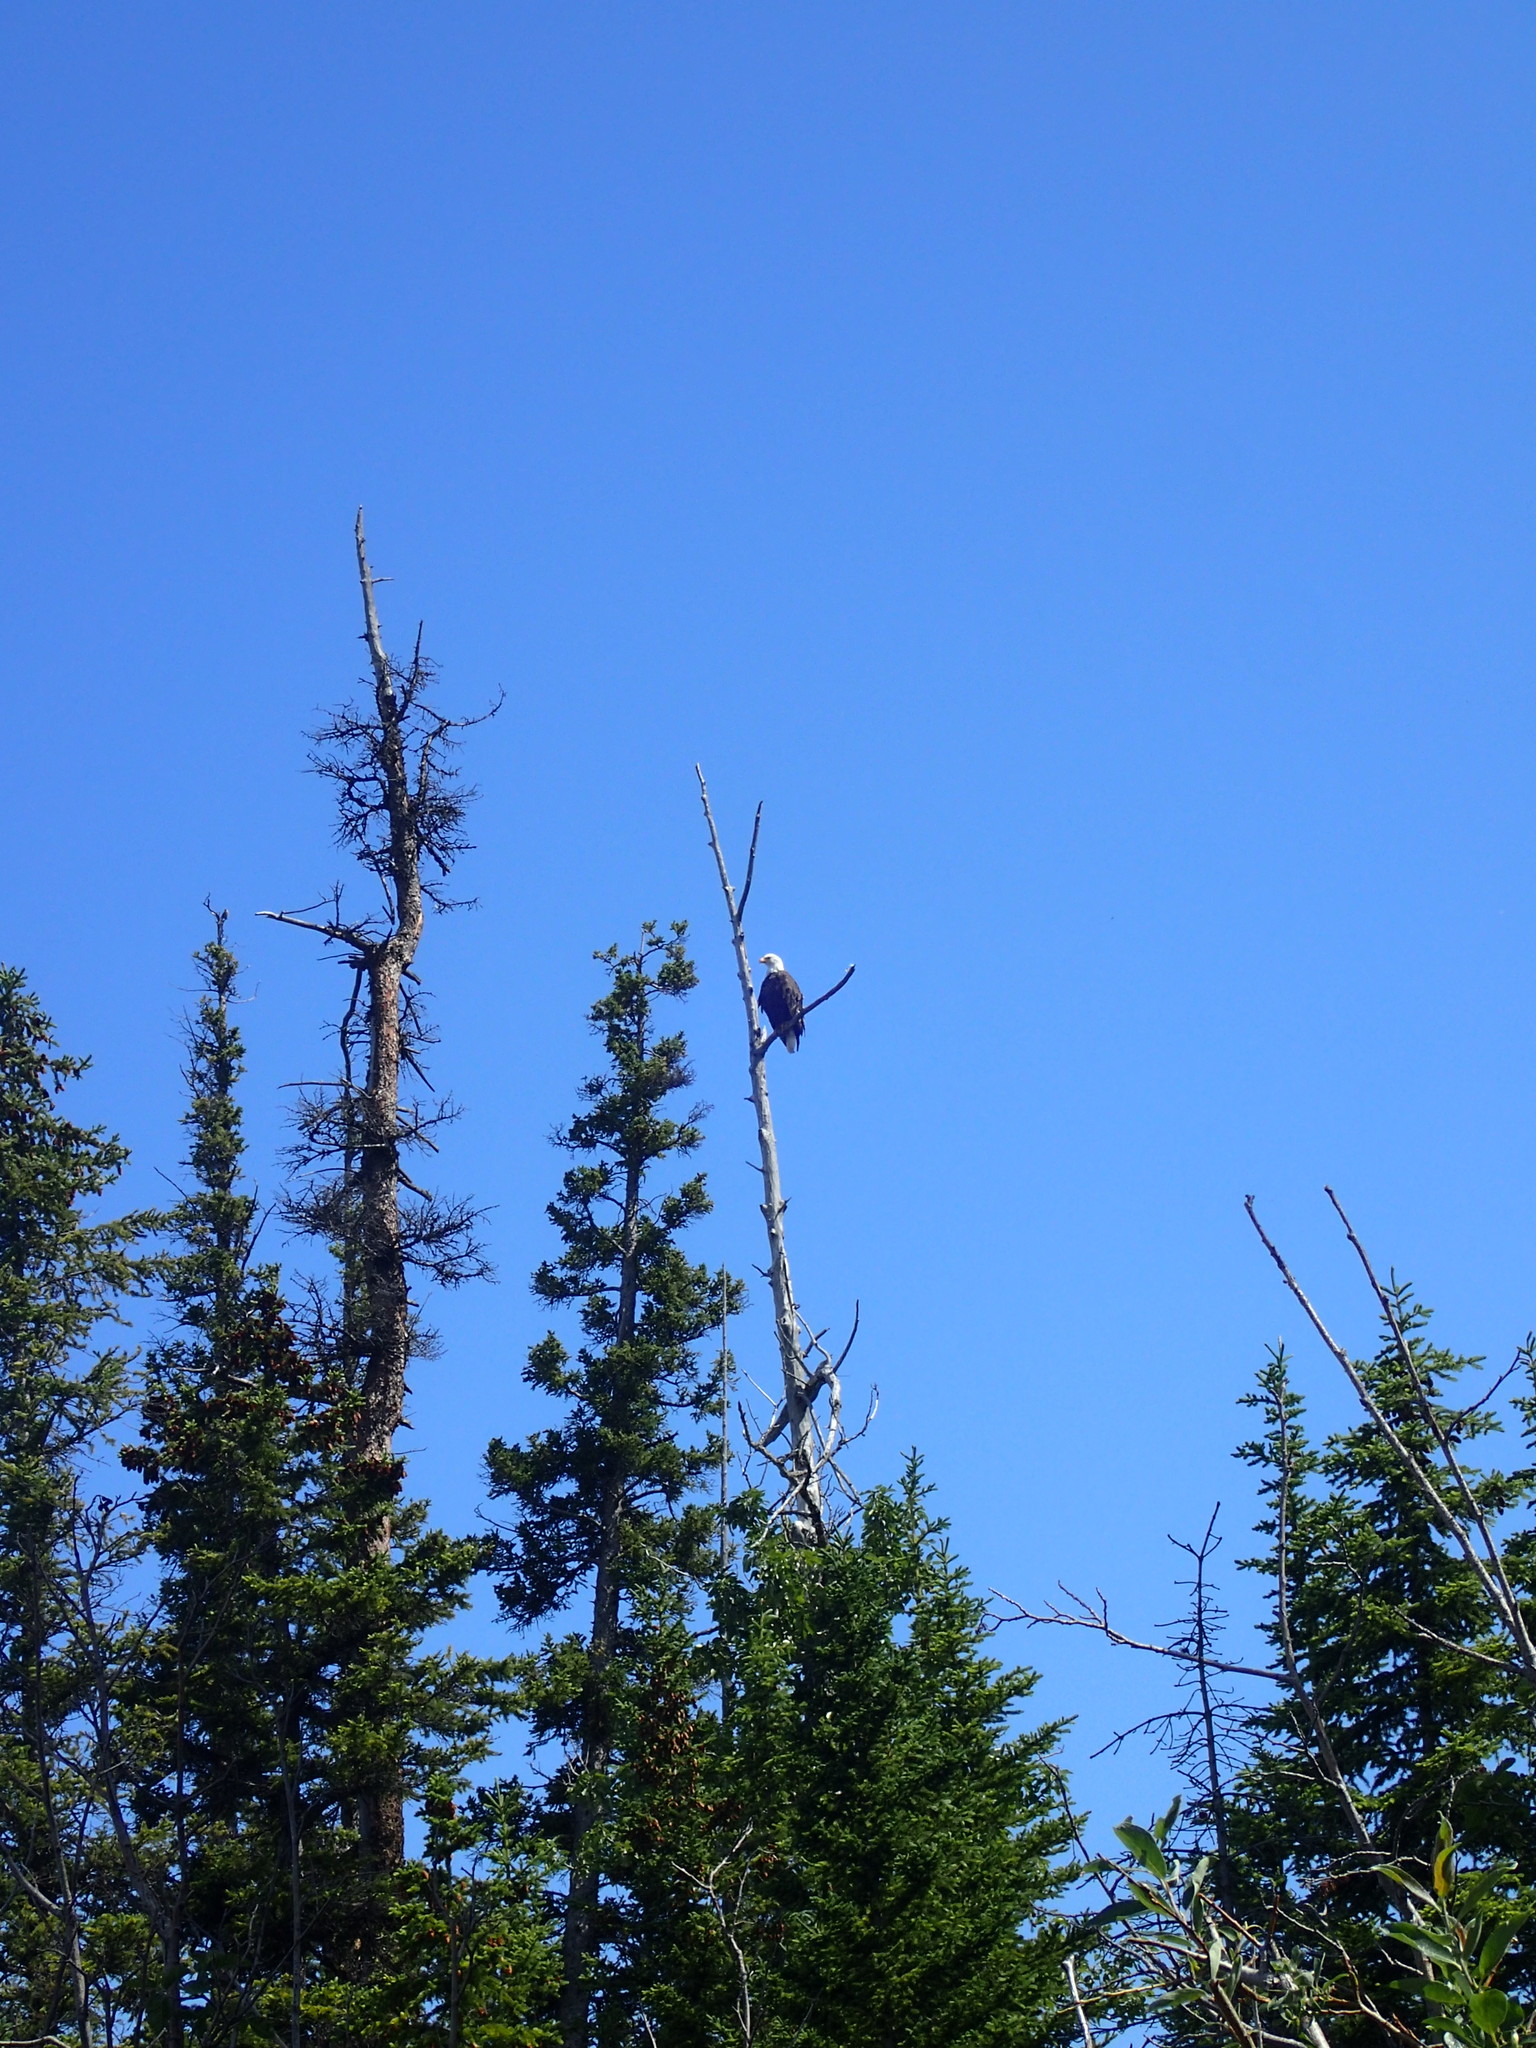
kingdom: Animalia
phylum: Chordata
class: Aves
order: Accipitriformes
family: Accipitridae
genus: Haliaeetus
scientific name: Haliaeetus leucocephalus
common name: Bald eagle
